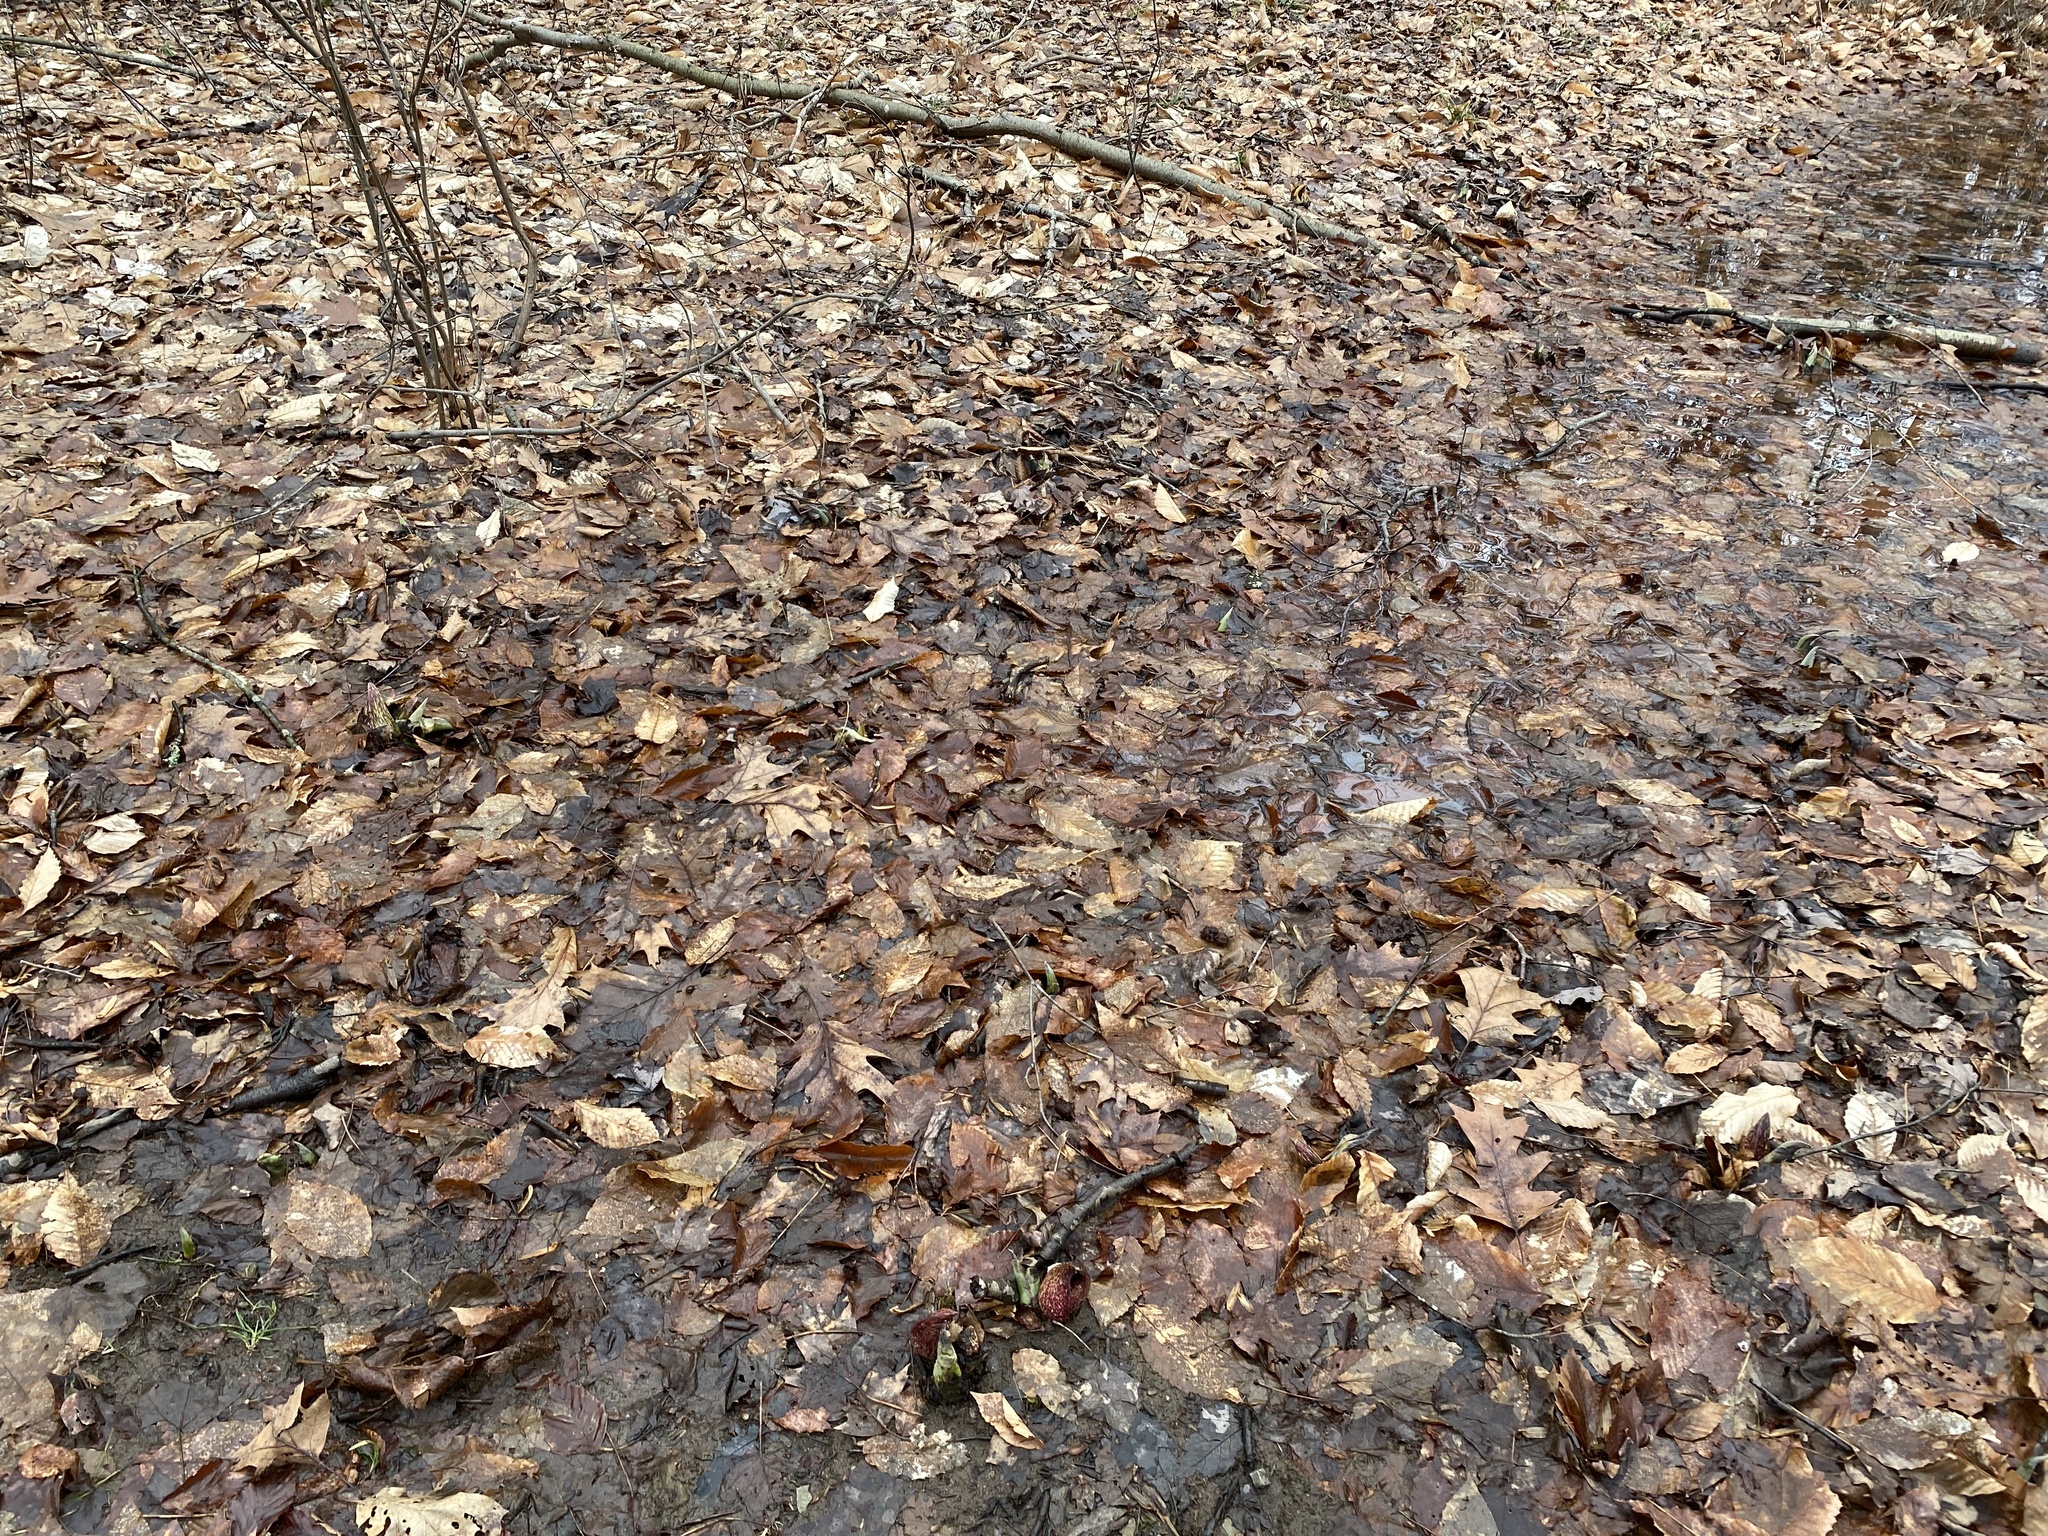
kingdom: Plantae
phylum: Tracheophyta
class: Liliopsida
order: Alismatales
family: Araceae
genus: Symplocarpus
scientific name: Symplocarpus foetidus
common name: Eastern skunk cabbage
